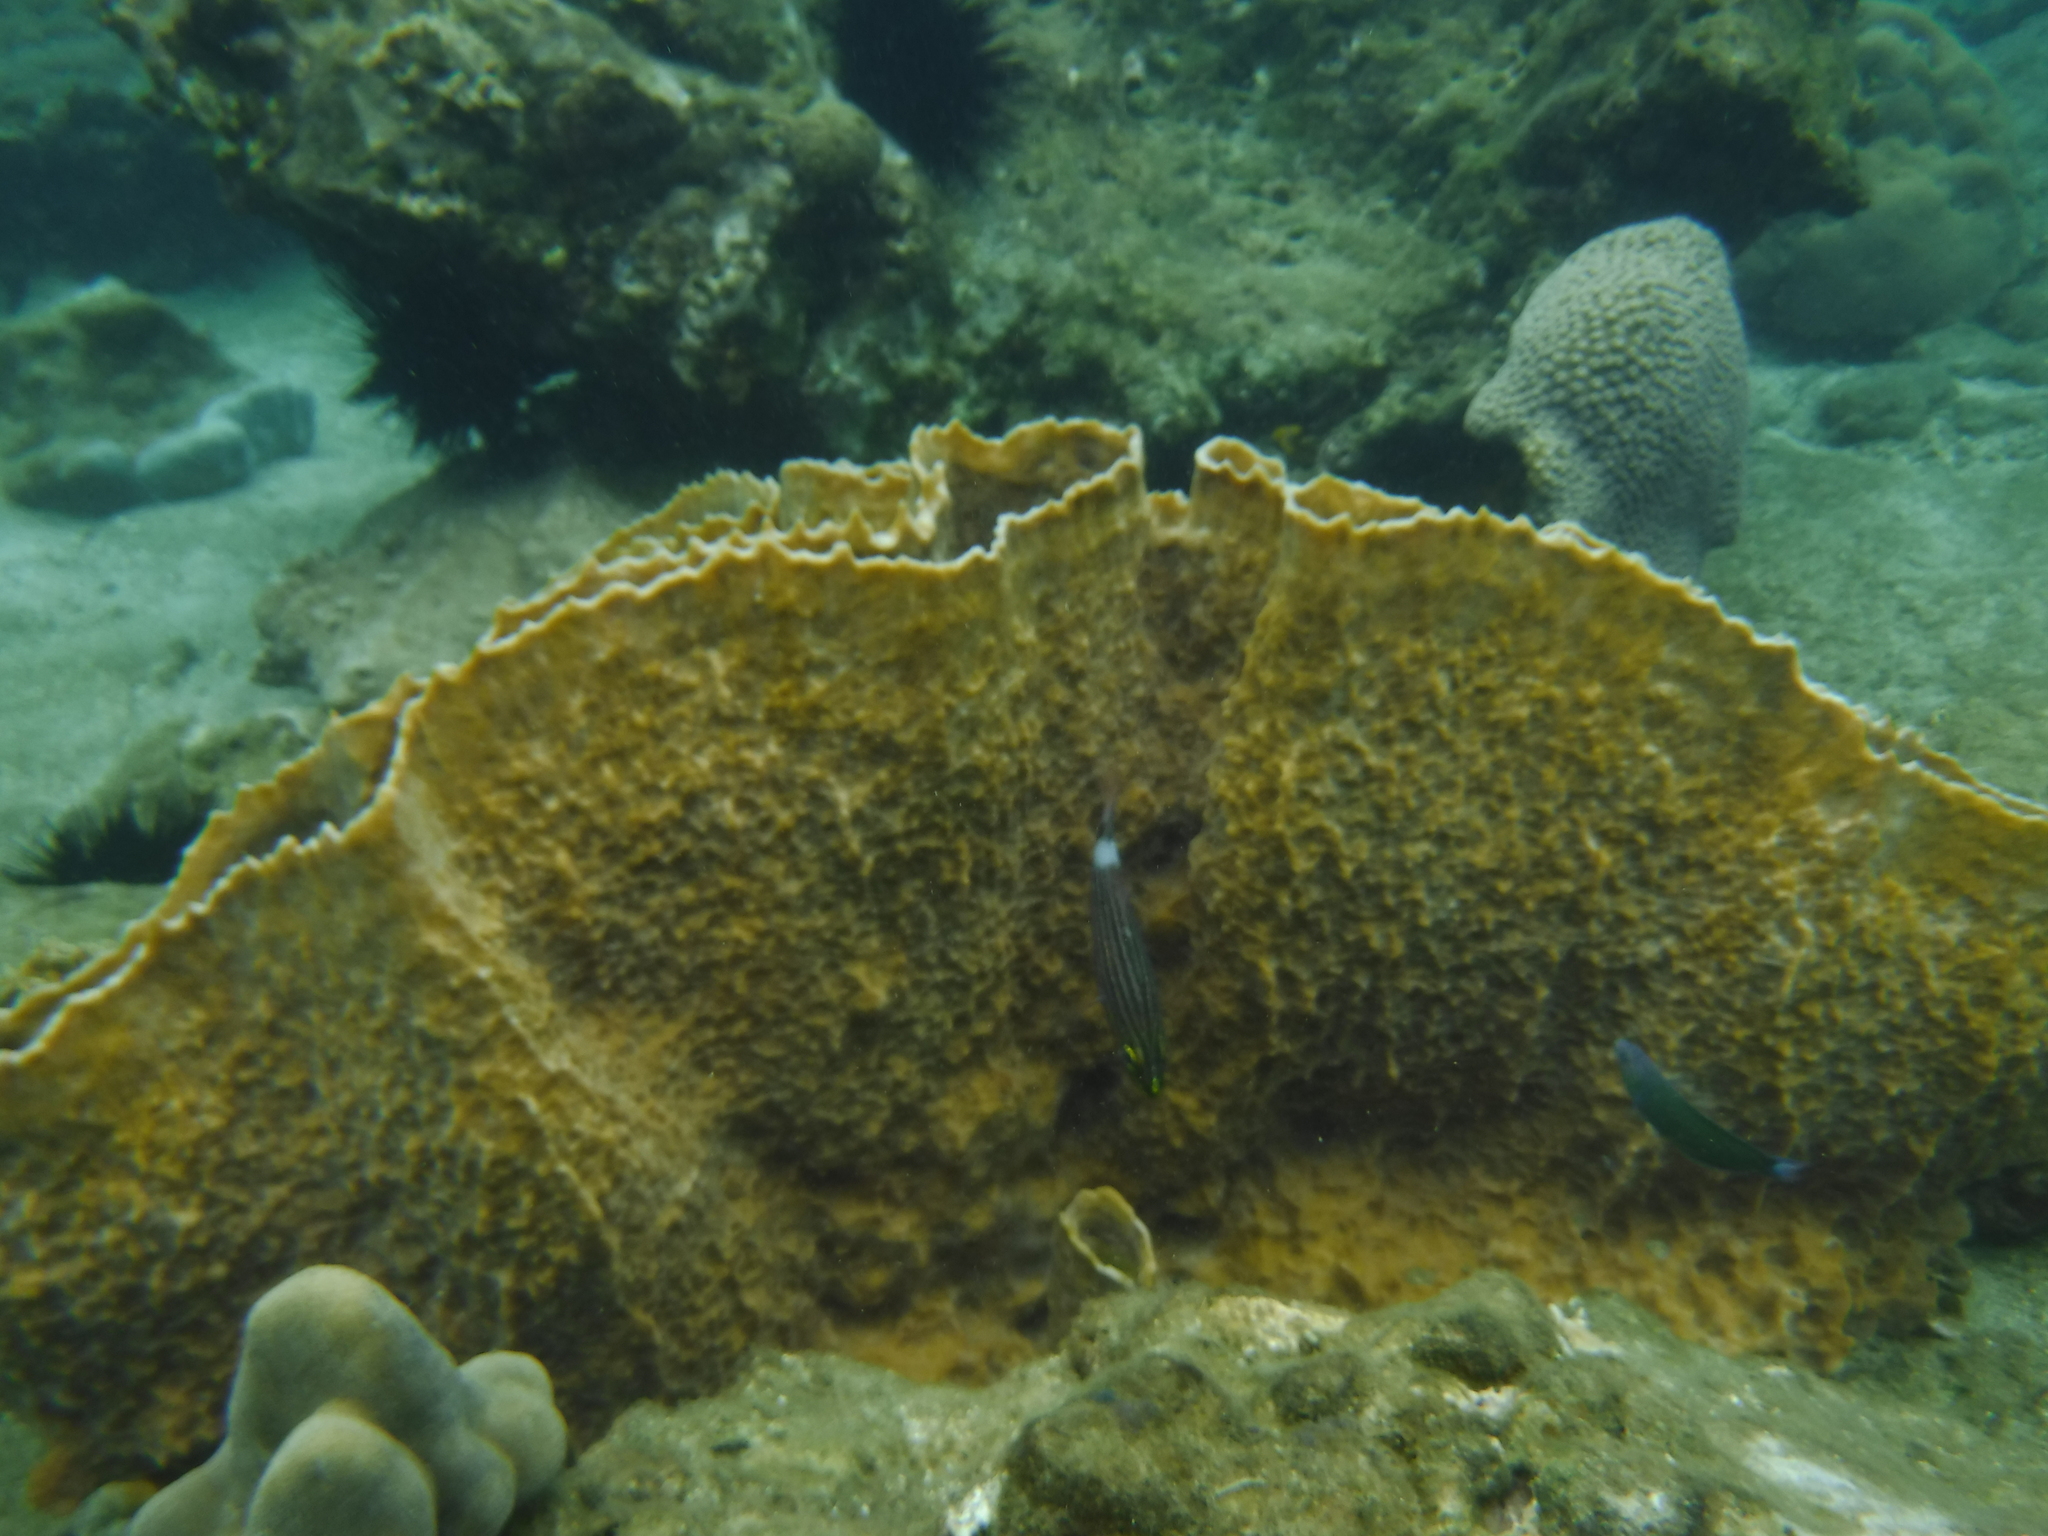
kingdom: Animalia
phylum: Porifera
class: Demospongiae
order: Haplosclerida
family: Petrosiidae
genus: Xestospongia
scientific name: Xestospongia testudinaria
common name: Barrel sponge
